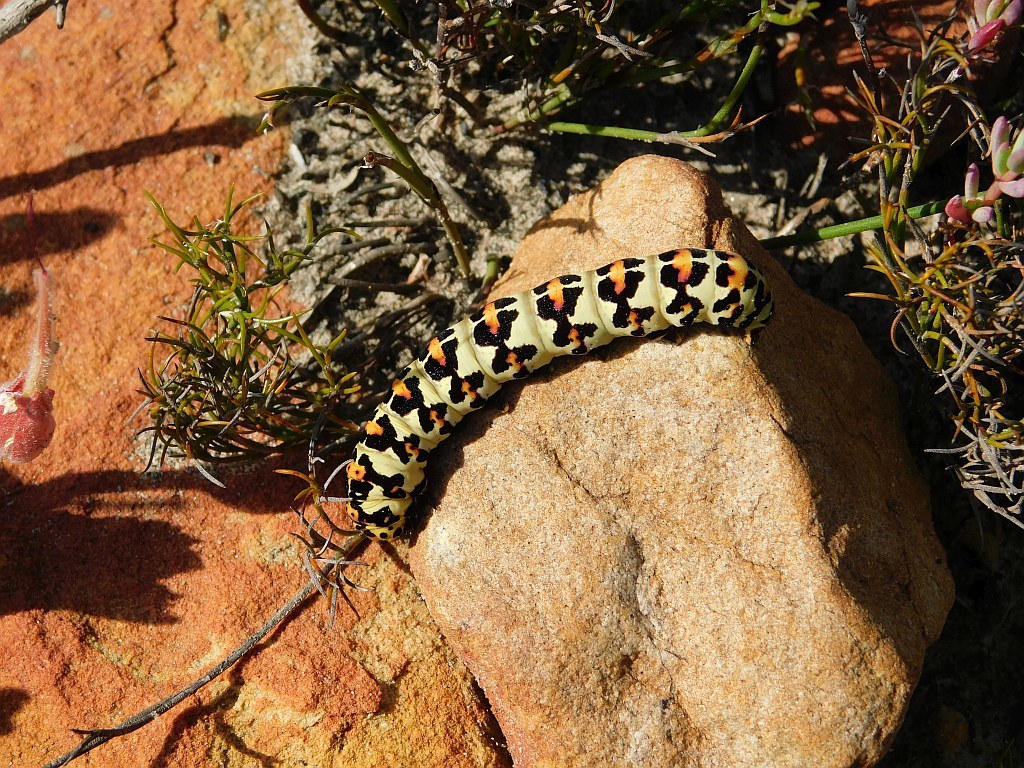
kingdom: Animalia
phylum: Arthropoda
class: Insecta
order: Lepidoptera
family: Noctuidae
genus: Diaphone
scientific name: Diaphone eumela
